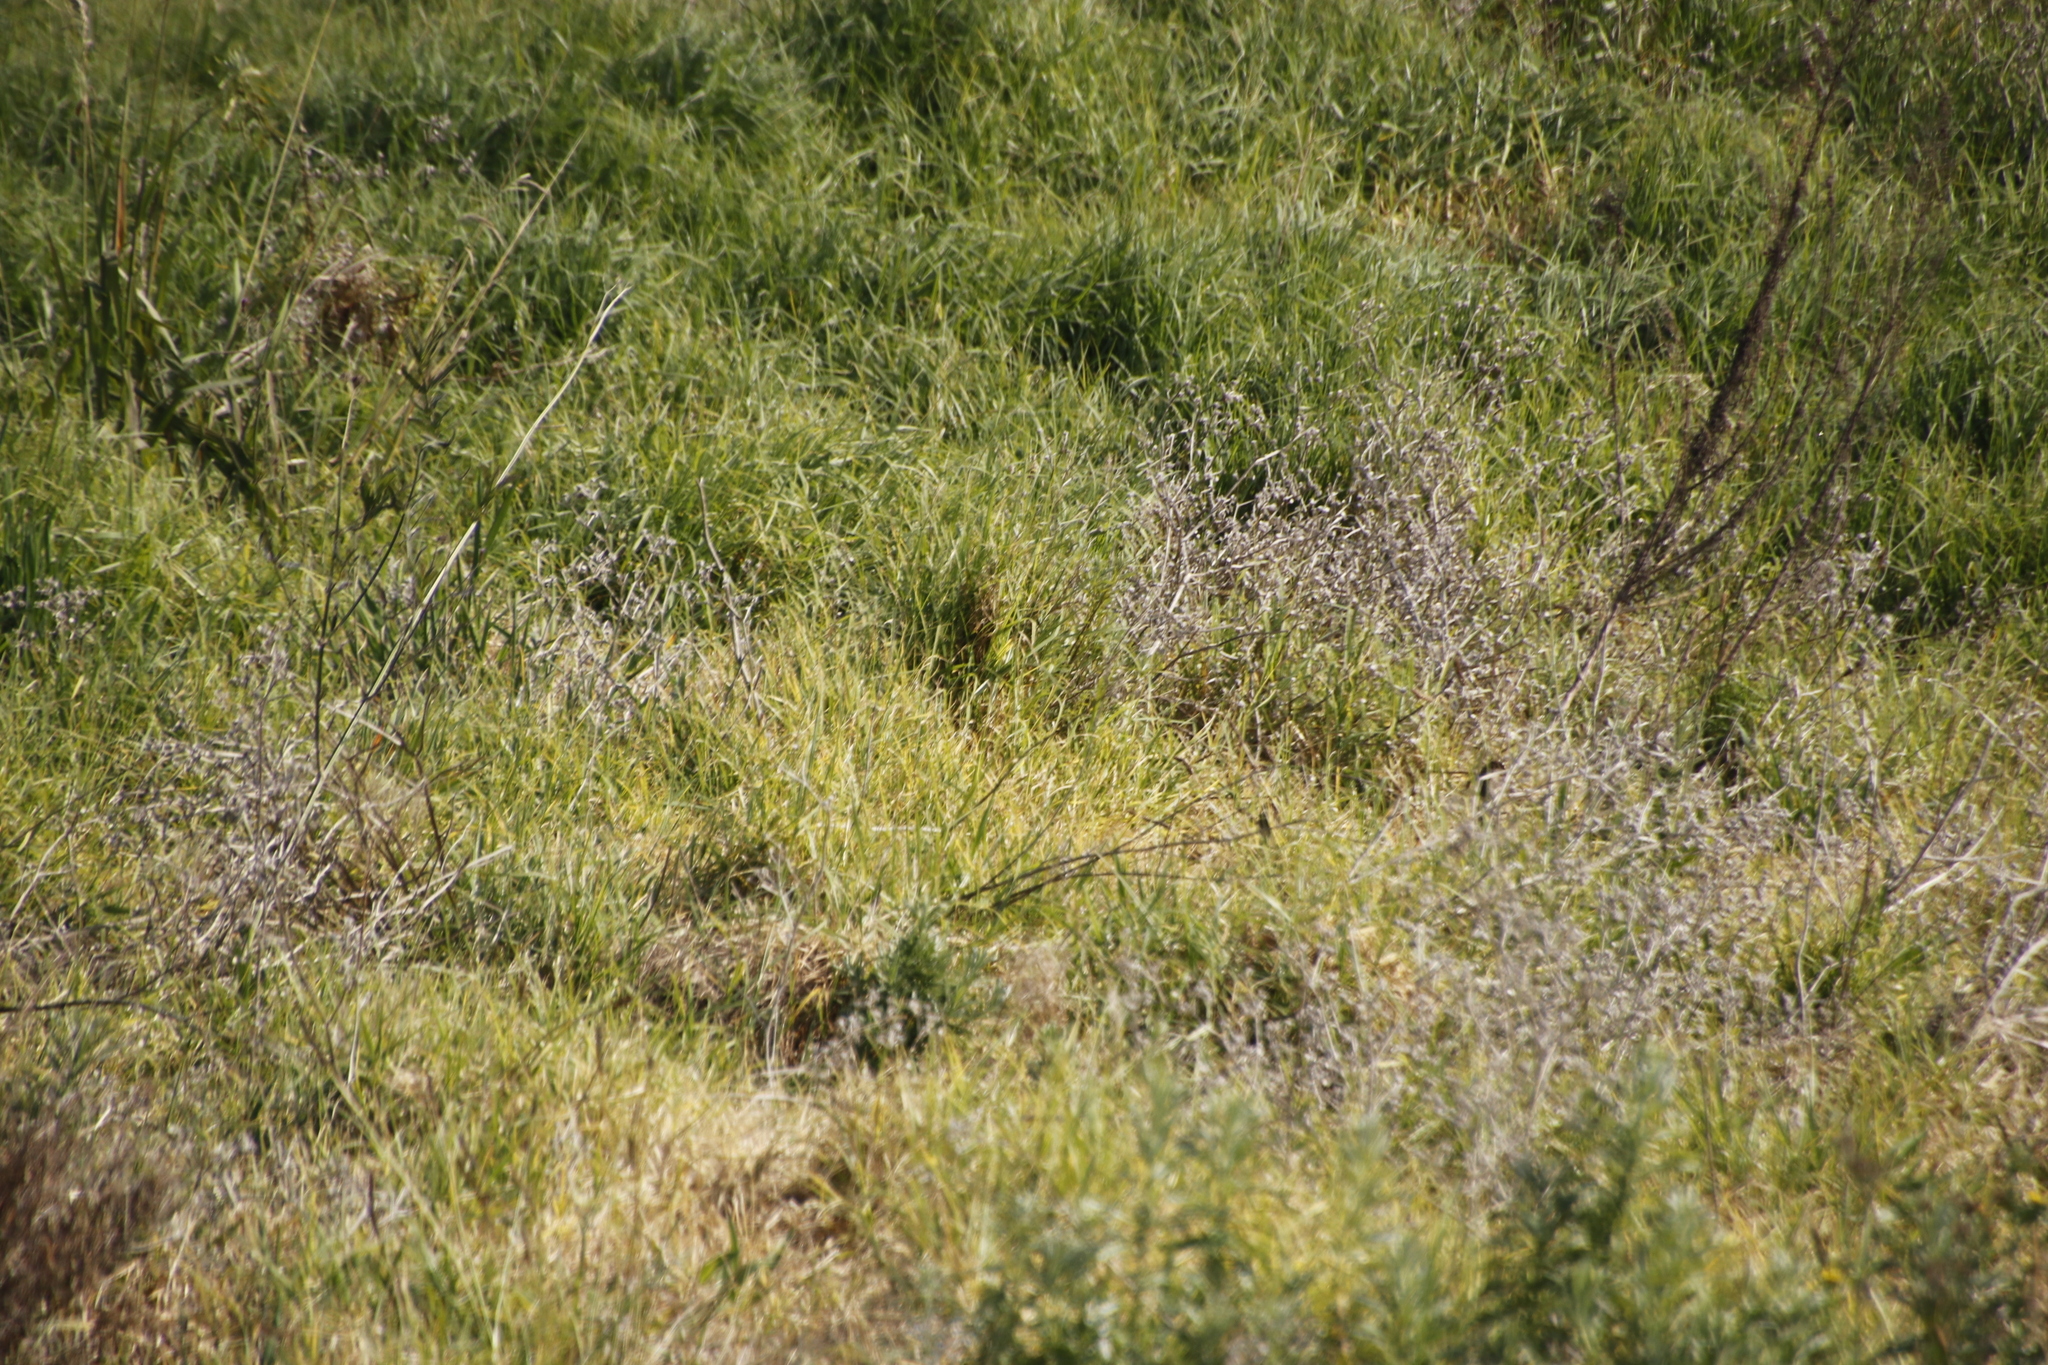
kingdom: Plantae
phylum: Tracheophyta
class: Liliopsida
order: Poales
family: Poaceae
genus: Cenchrus
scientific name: Cenchrus clandestinus
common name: Kikuyugrass
